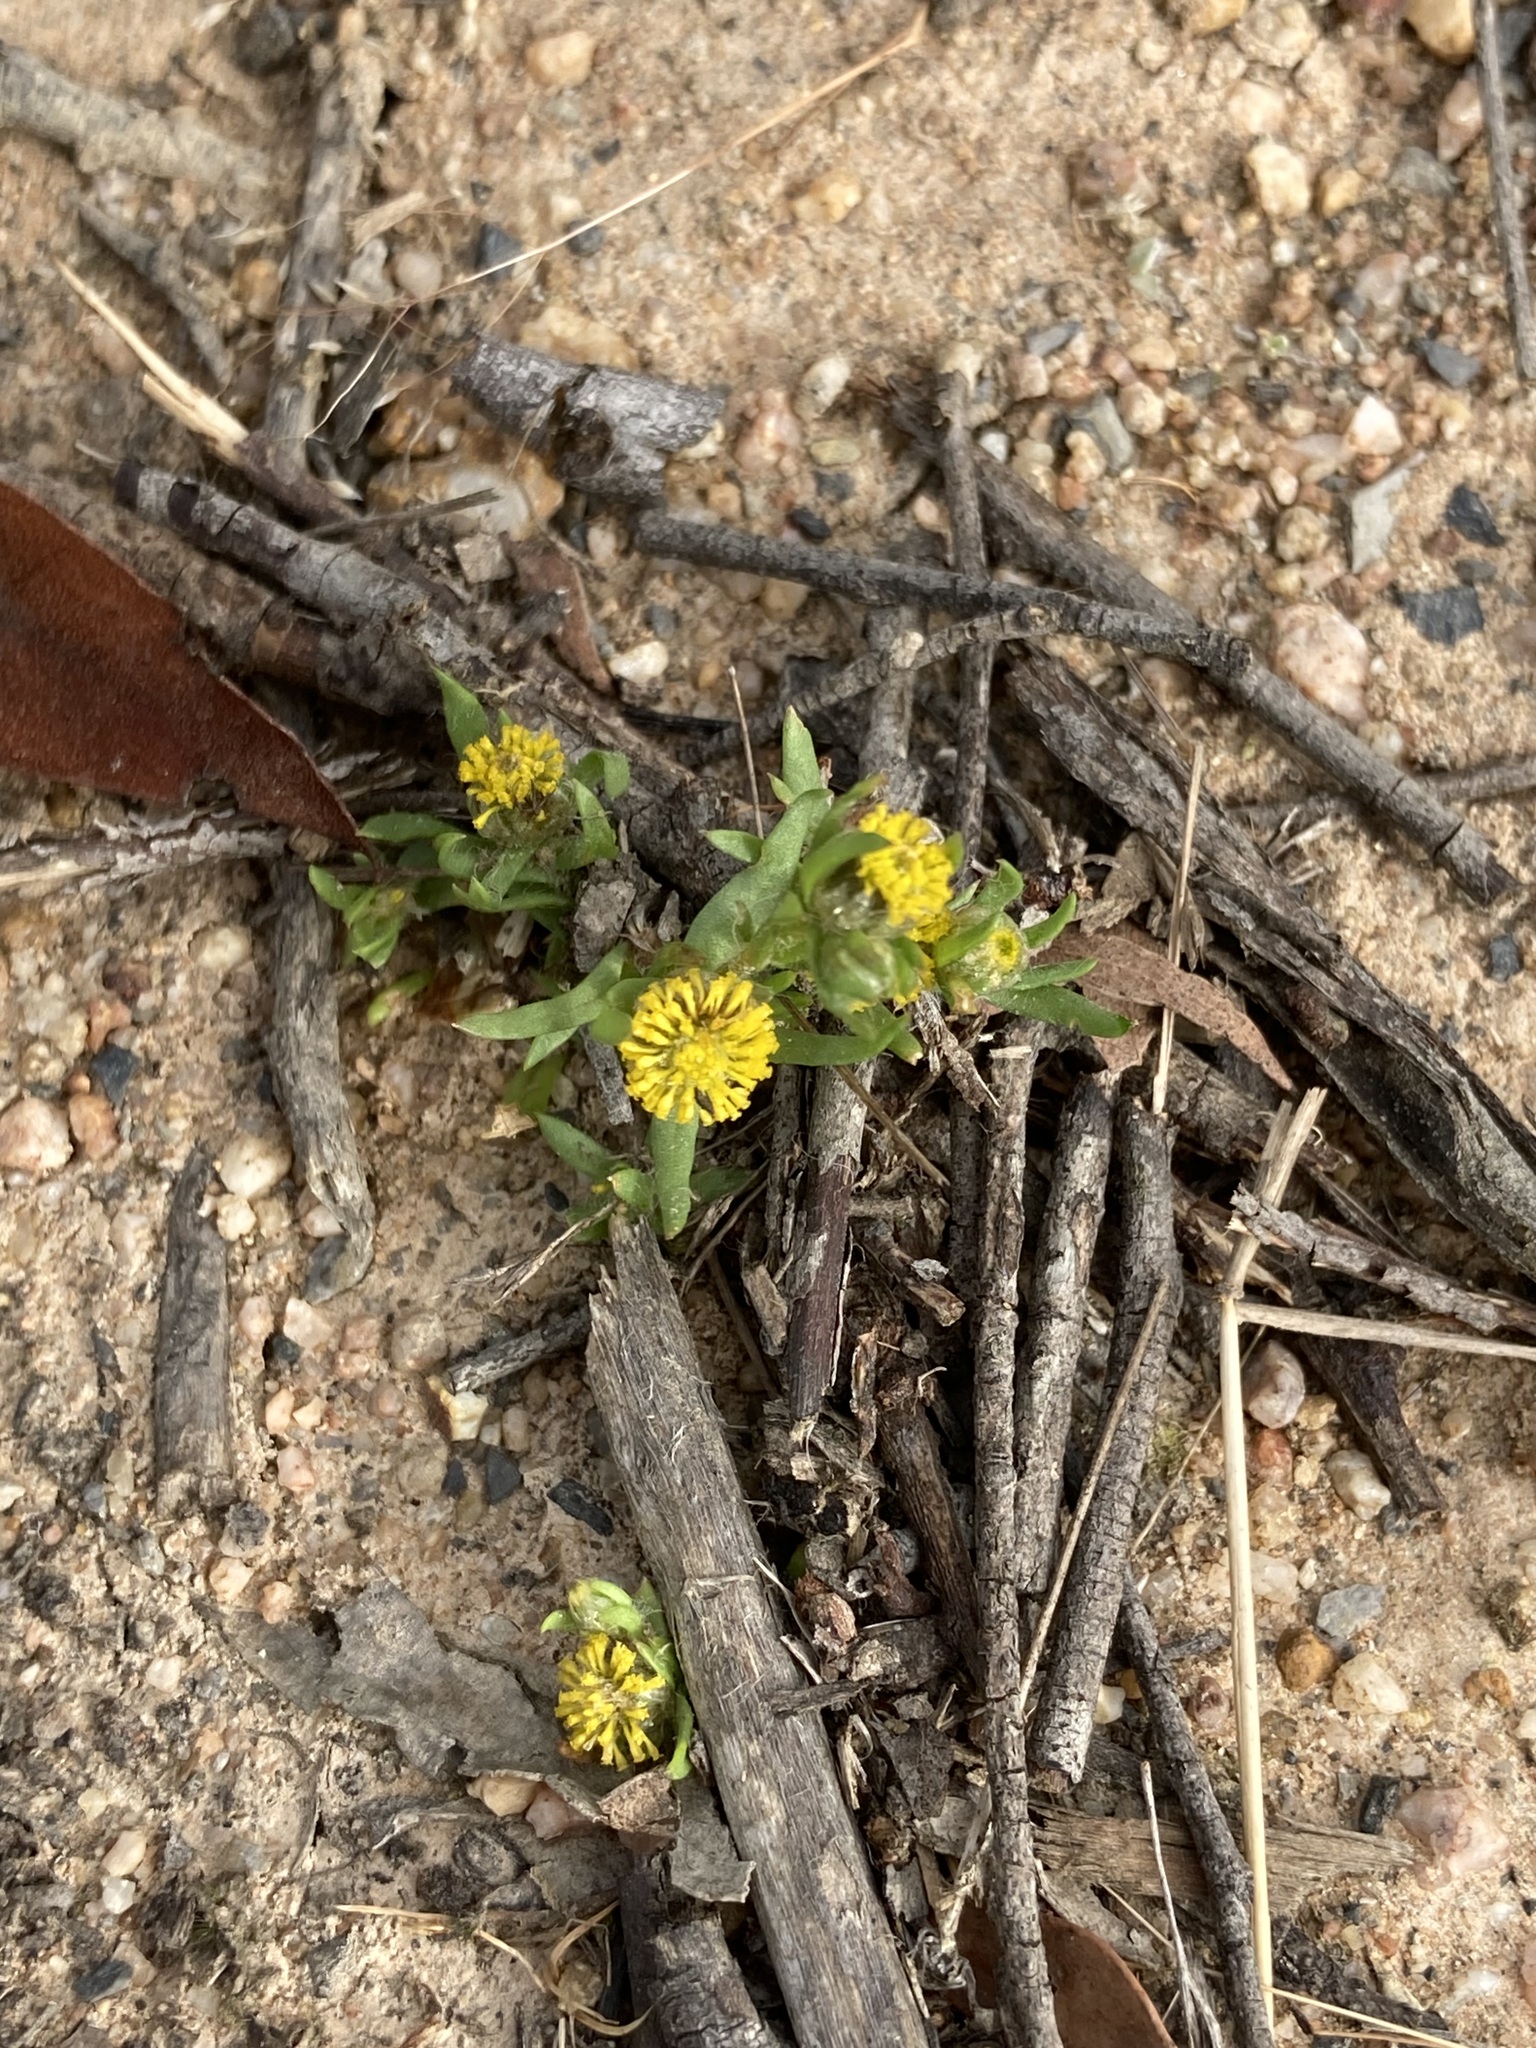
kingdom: Plantae
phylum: Tracheophyta
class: Magnoliopsida
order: Asterales
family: Asteraceae
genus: Triptilodiscus
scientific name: Triptilodiscus pygmaeus
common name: Common sunray
